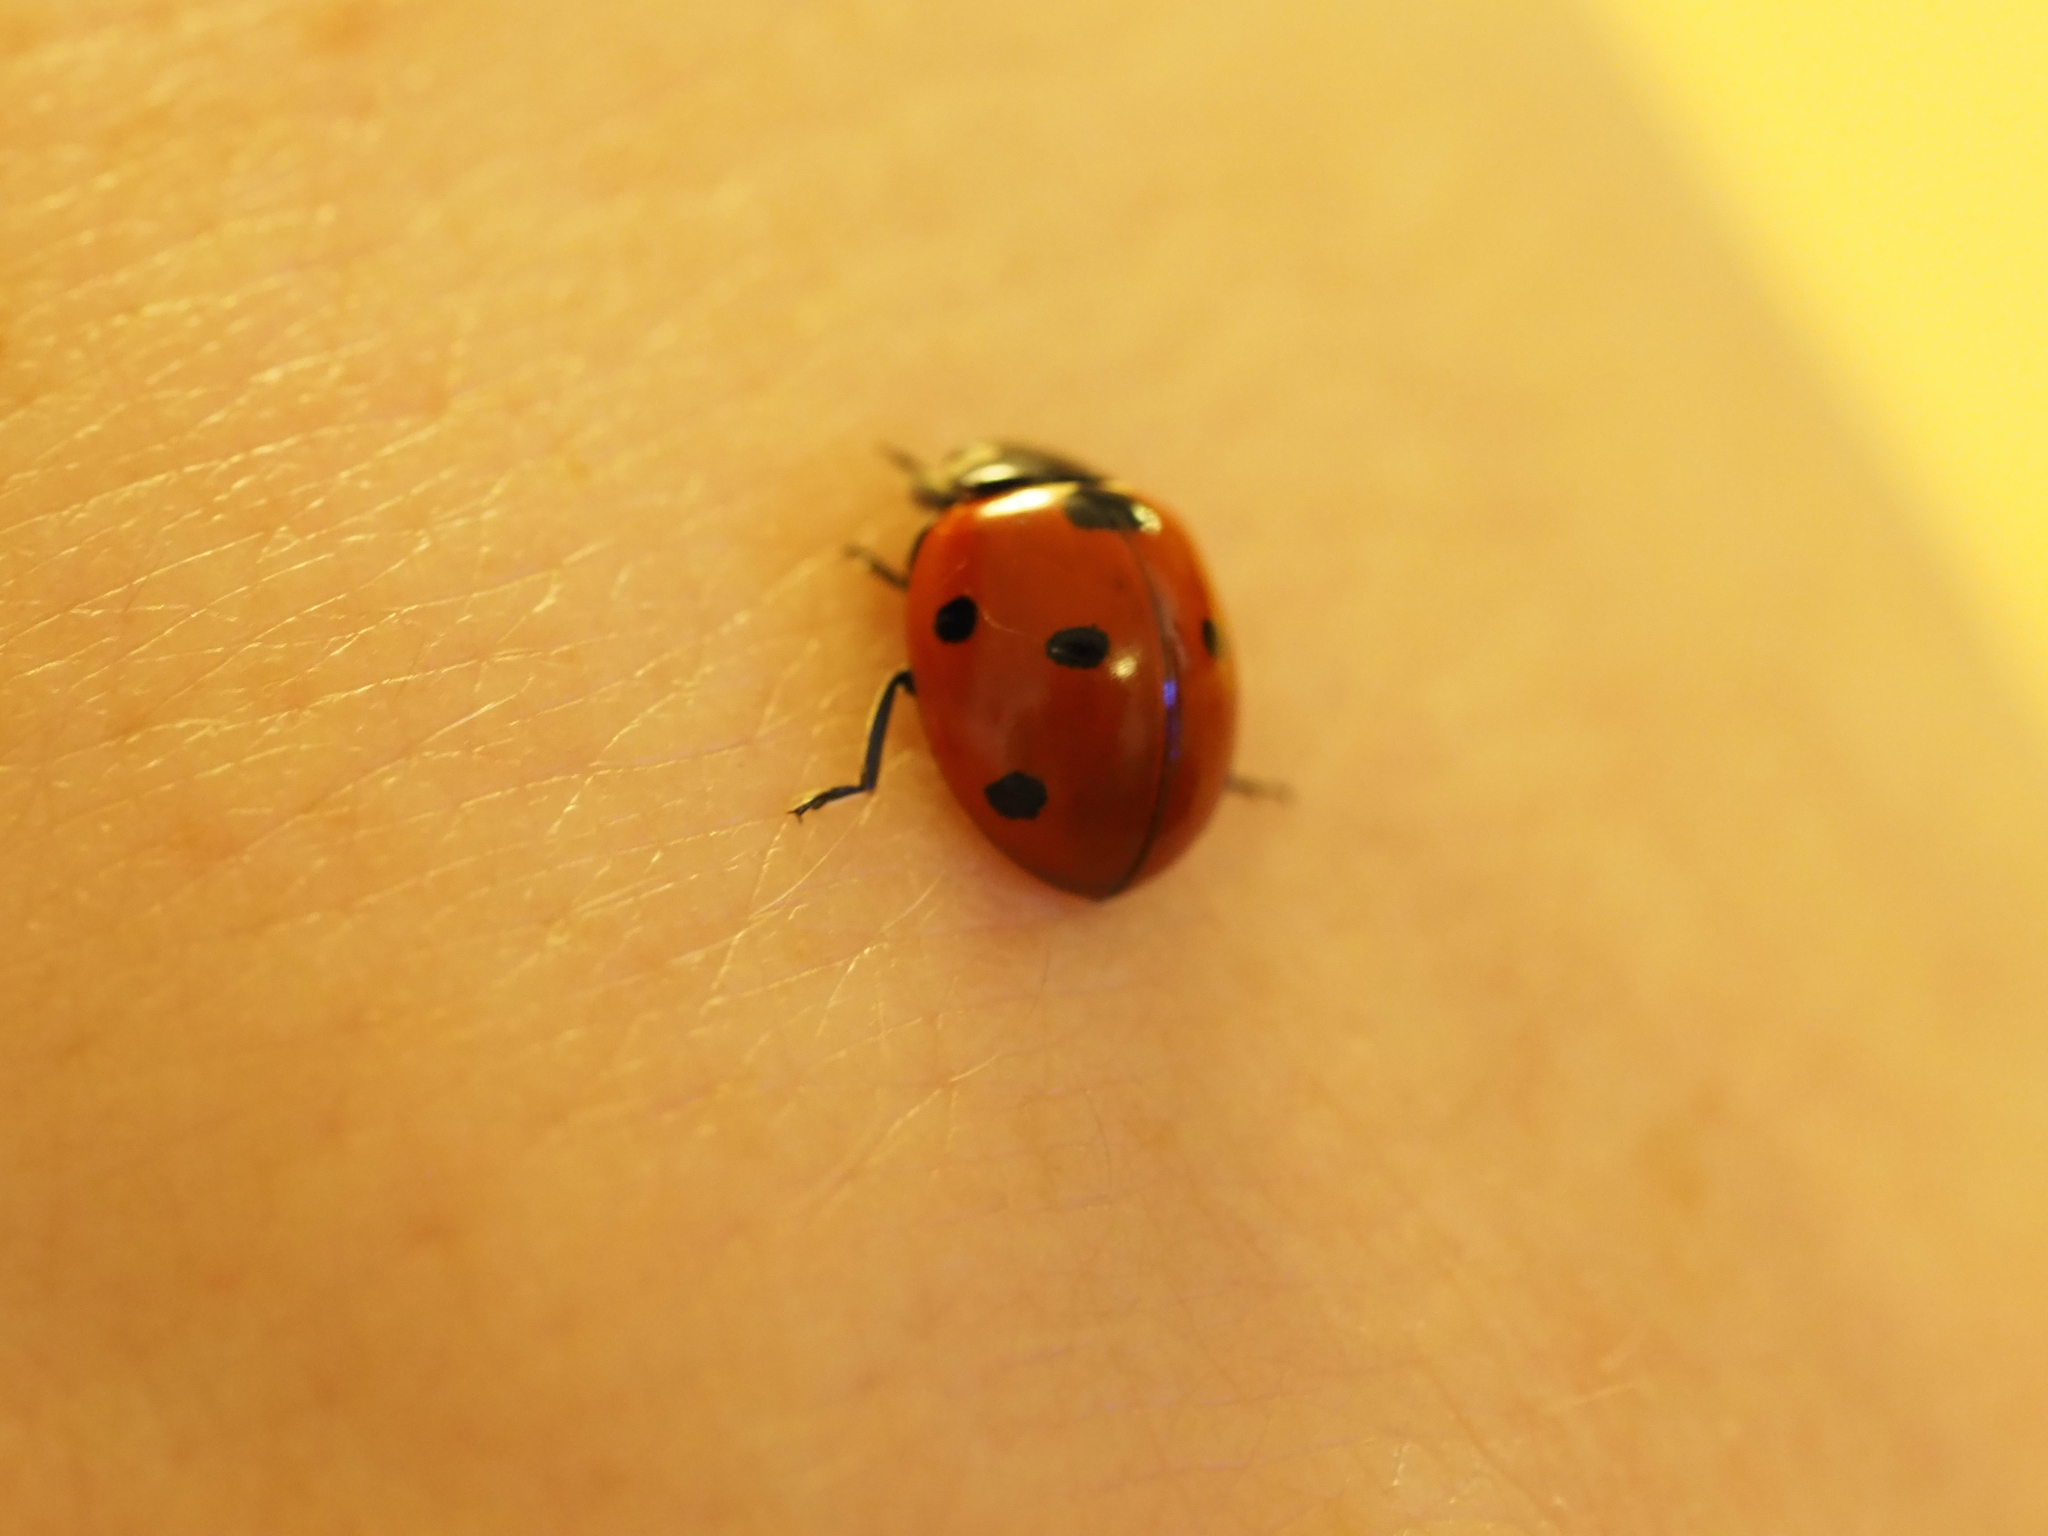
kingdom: Animalia
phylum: Arthropoda
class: Insecta
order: Coleoptera
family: Coccinellidae
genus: Coccinella
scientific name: Coccinella septempunctata
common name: Sevenspotted lady beetle
